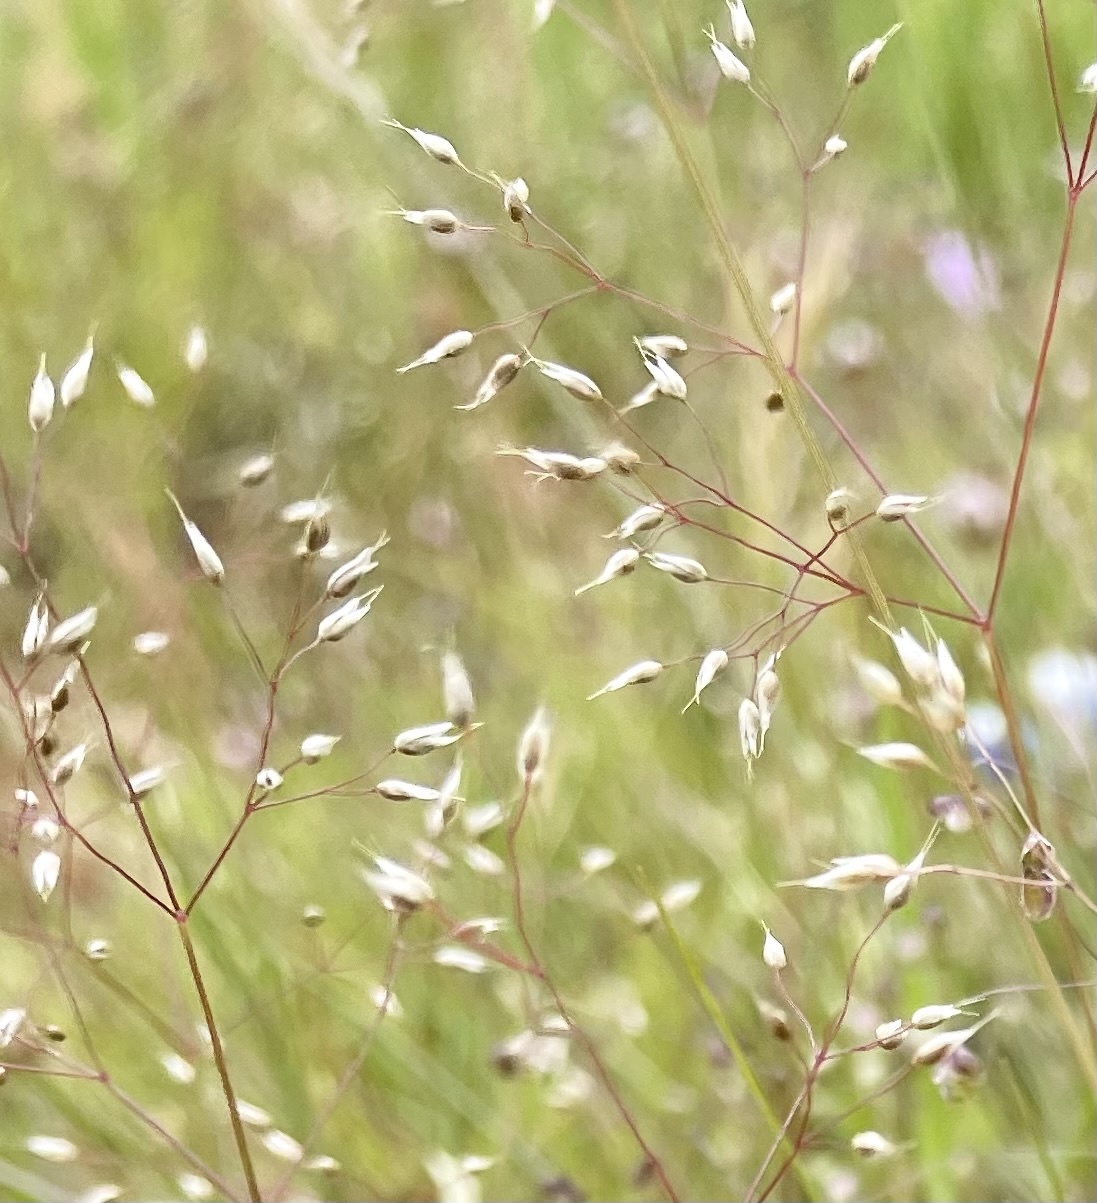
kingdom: Plantae
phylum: Tracheophyta
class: Liliopsida
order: Poales
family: Poaceae
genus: Aira
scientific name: Aira caryophyllea
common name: Silver hairgrass
